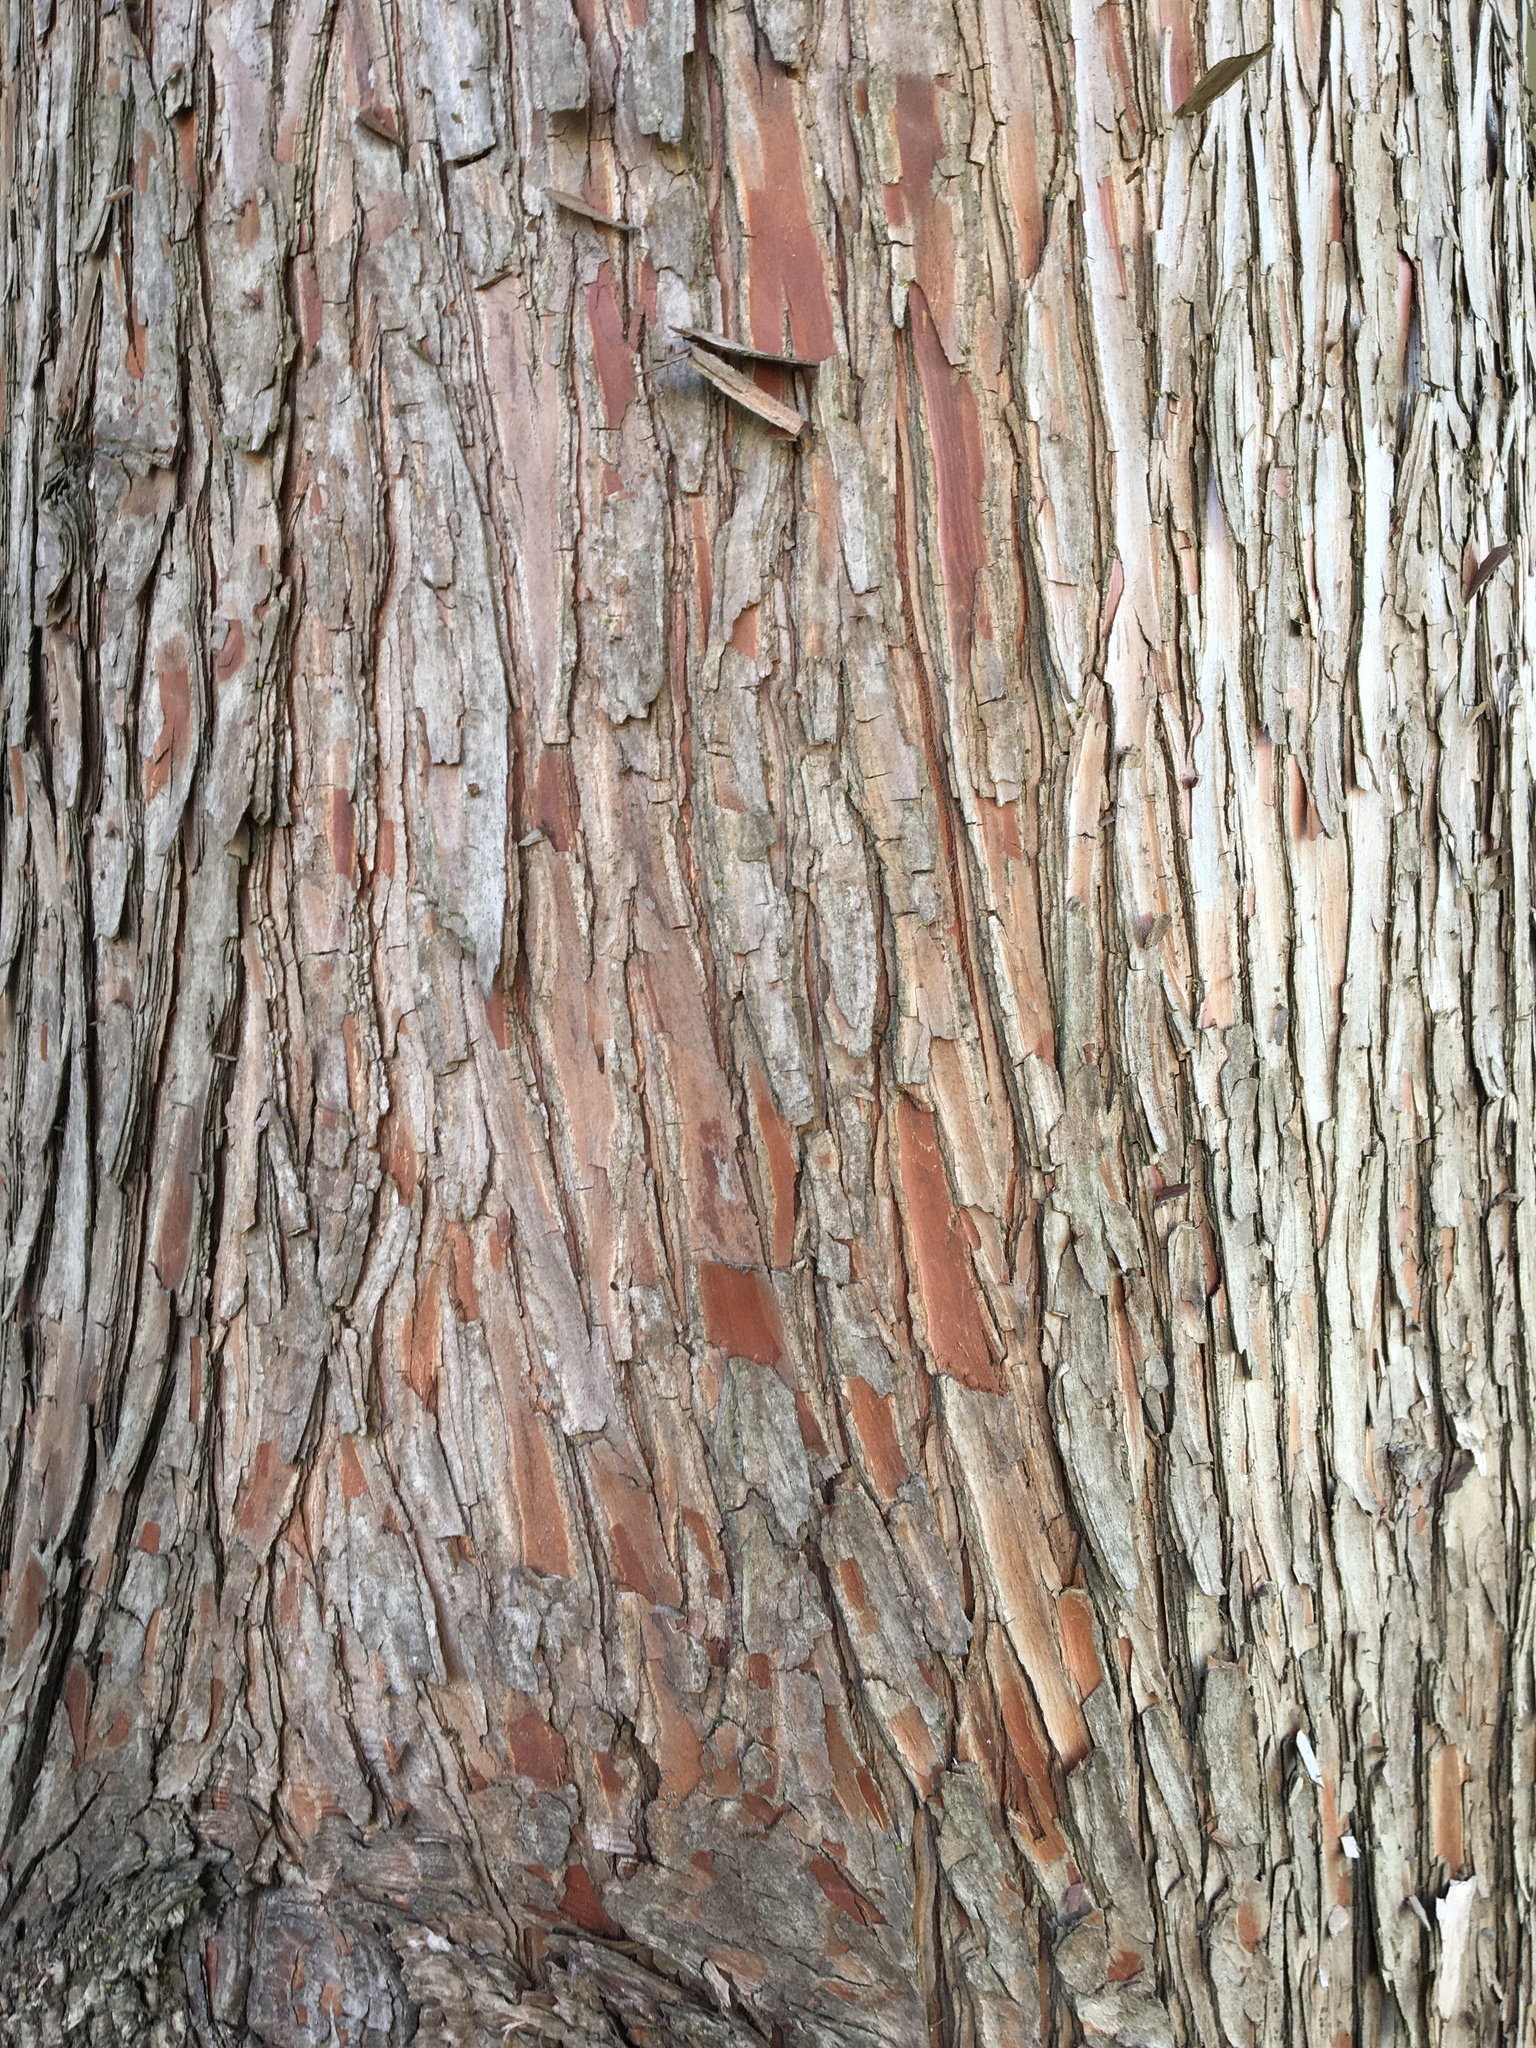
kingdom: Plantae
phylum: Tracheophyta
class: Pinopsida
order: Pinales
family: Cupressaceae
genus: Taxodium
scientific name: Taxodium distichum
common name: Bald cypress
